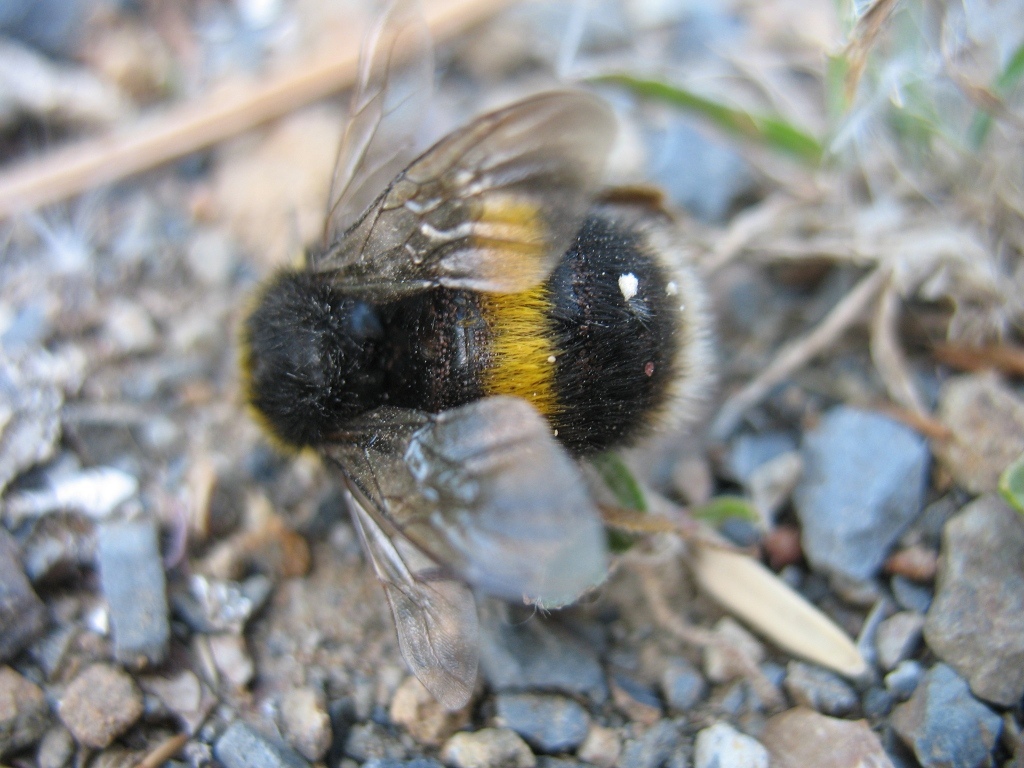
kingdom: Animalia
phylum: Arthropoda
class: Insecta
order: Hymenoptera
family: Apidae
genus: Bombus
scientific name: Bombus terrestris
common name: Buff-tailed bumblebee
